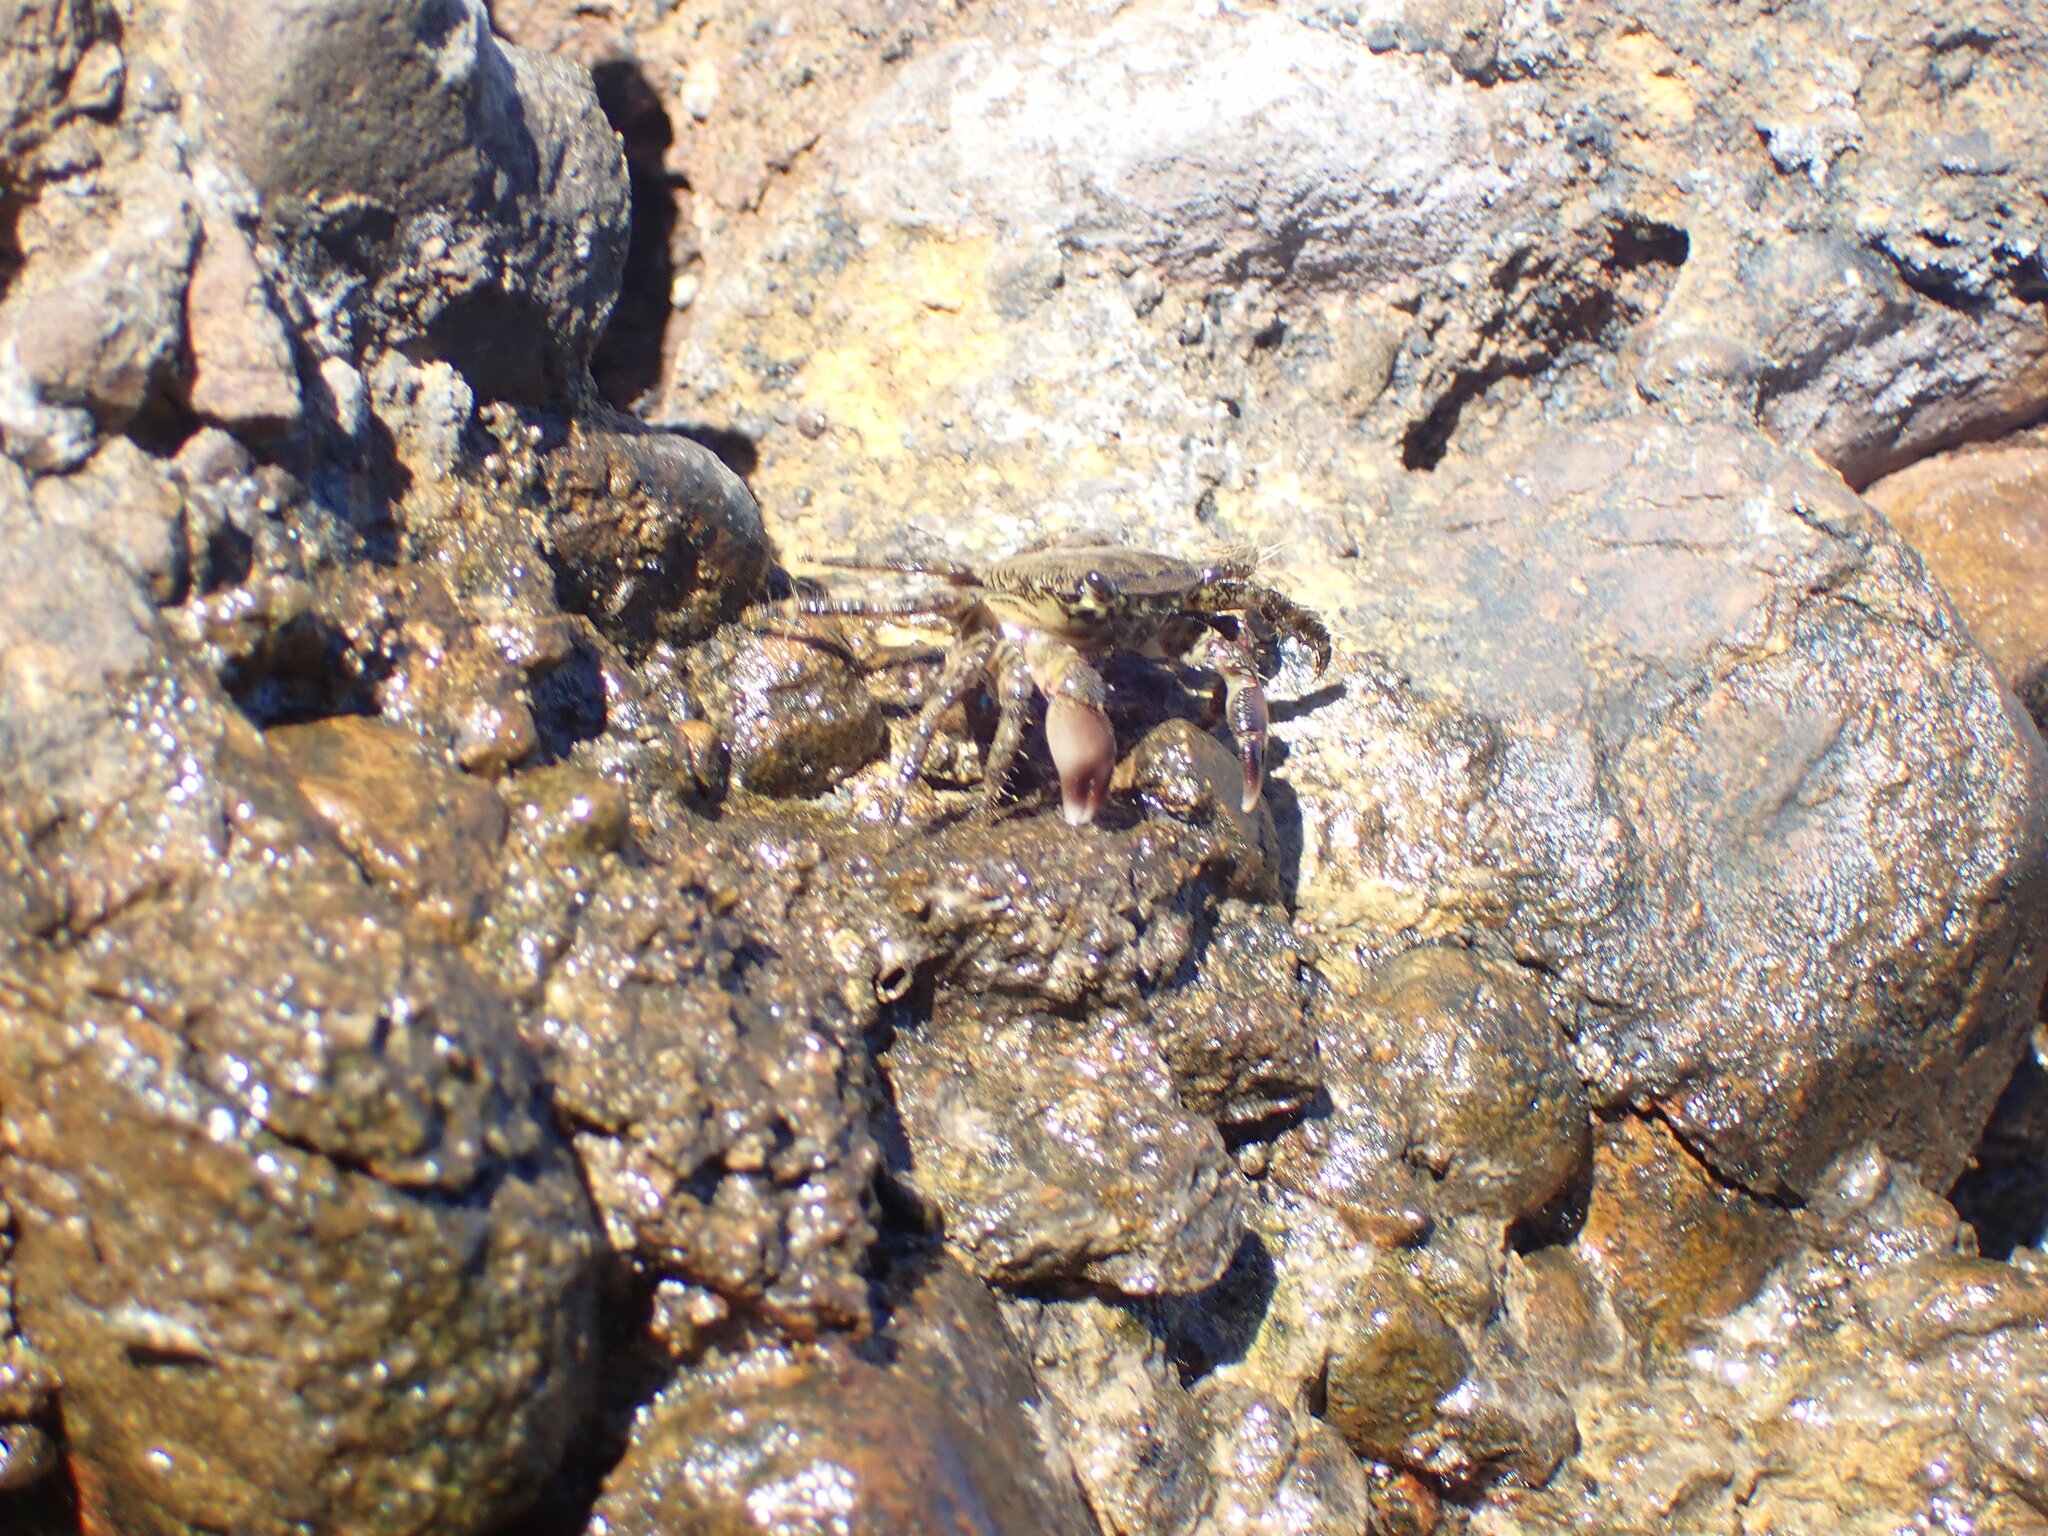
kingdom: Animalia
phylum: Arthropoda
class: Malacostraca
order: Decapoda
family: Grapsidae
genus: Pachygrapsus
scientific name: Pachygrapsus marmoratus
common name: Marbled rock crab
